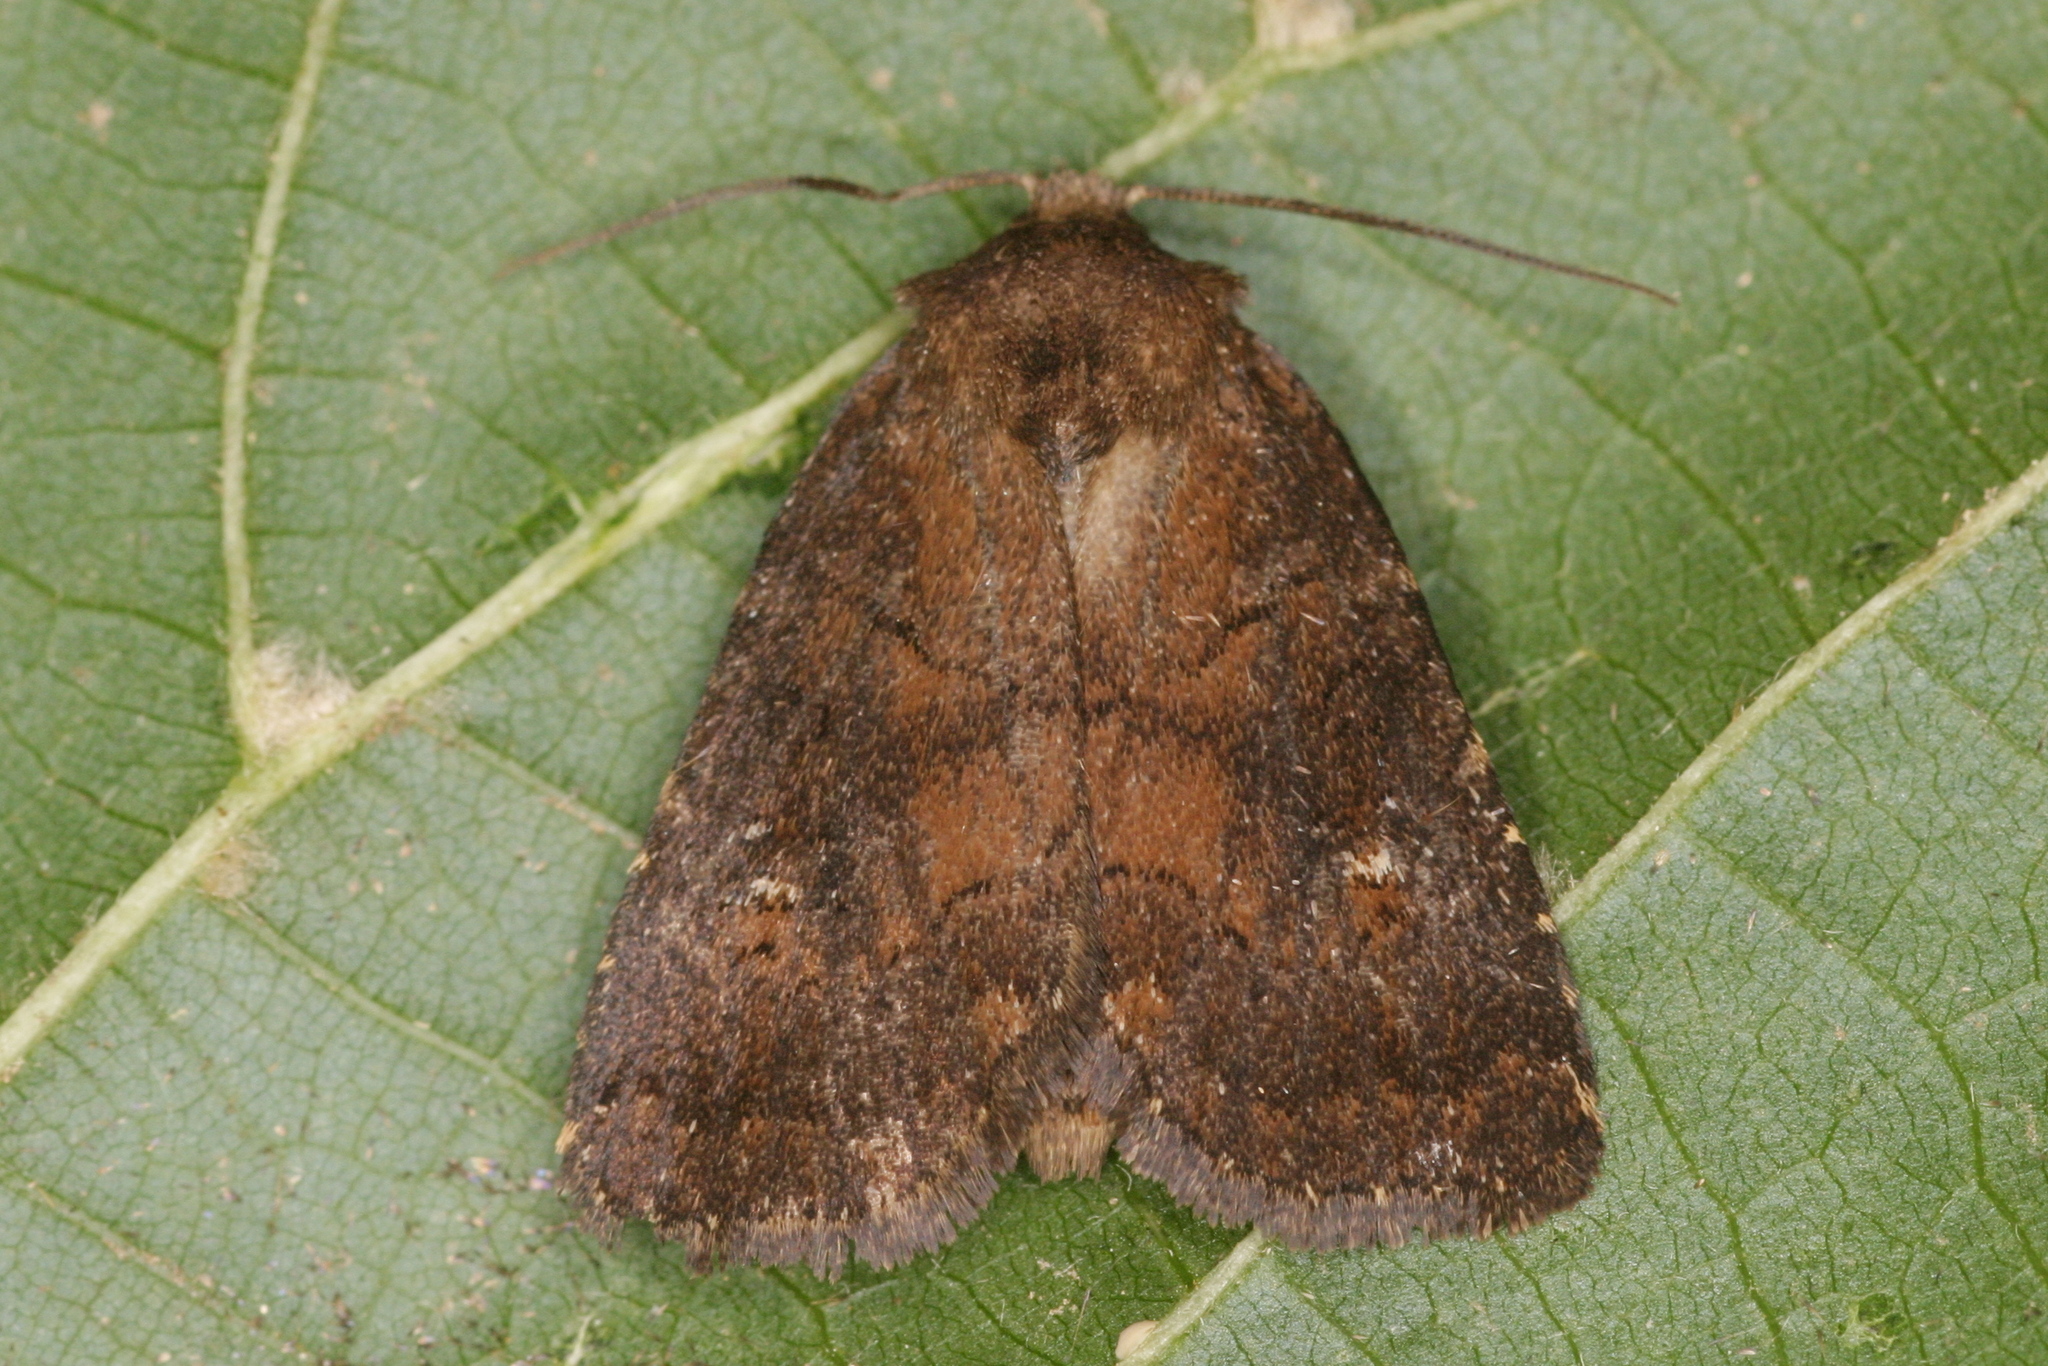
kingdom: Animalia
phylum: Arthropoda
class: Insecta
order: Lepidoptera
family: Noctuidae
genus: Charanyca
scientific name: Charanyca ferruginea
